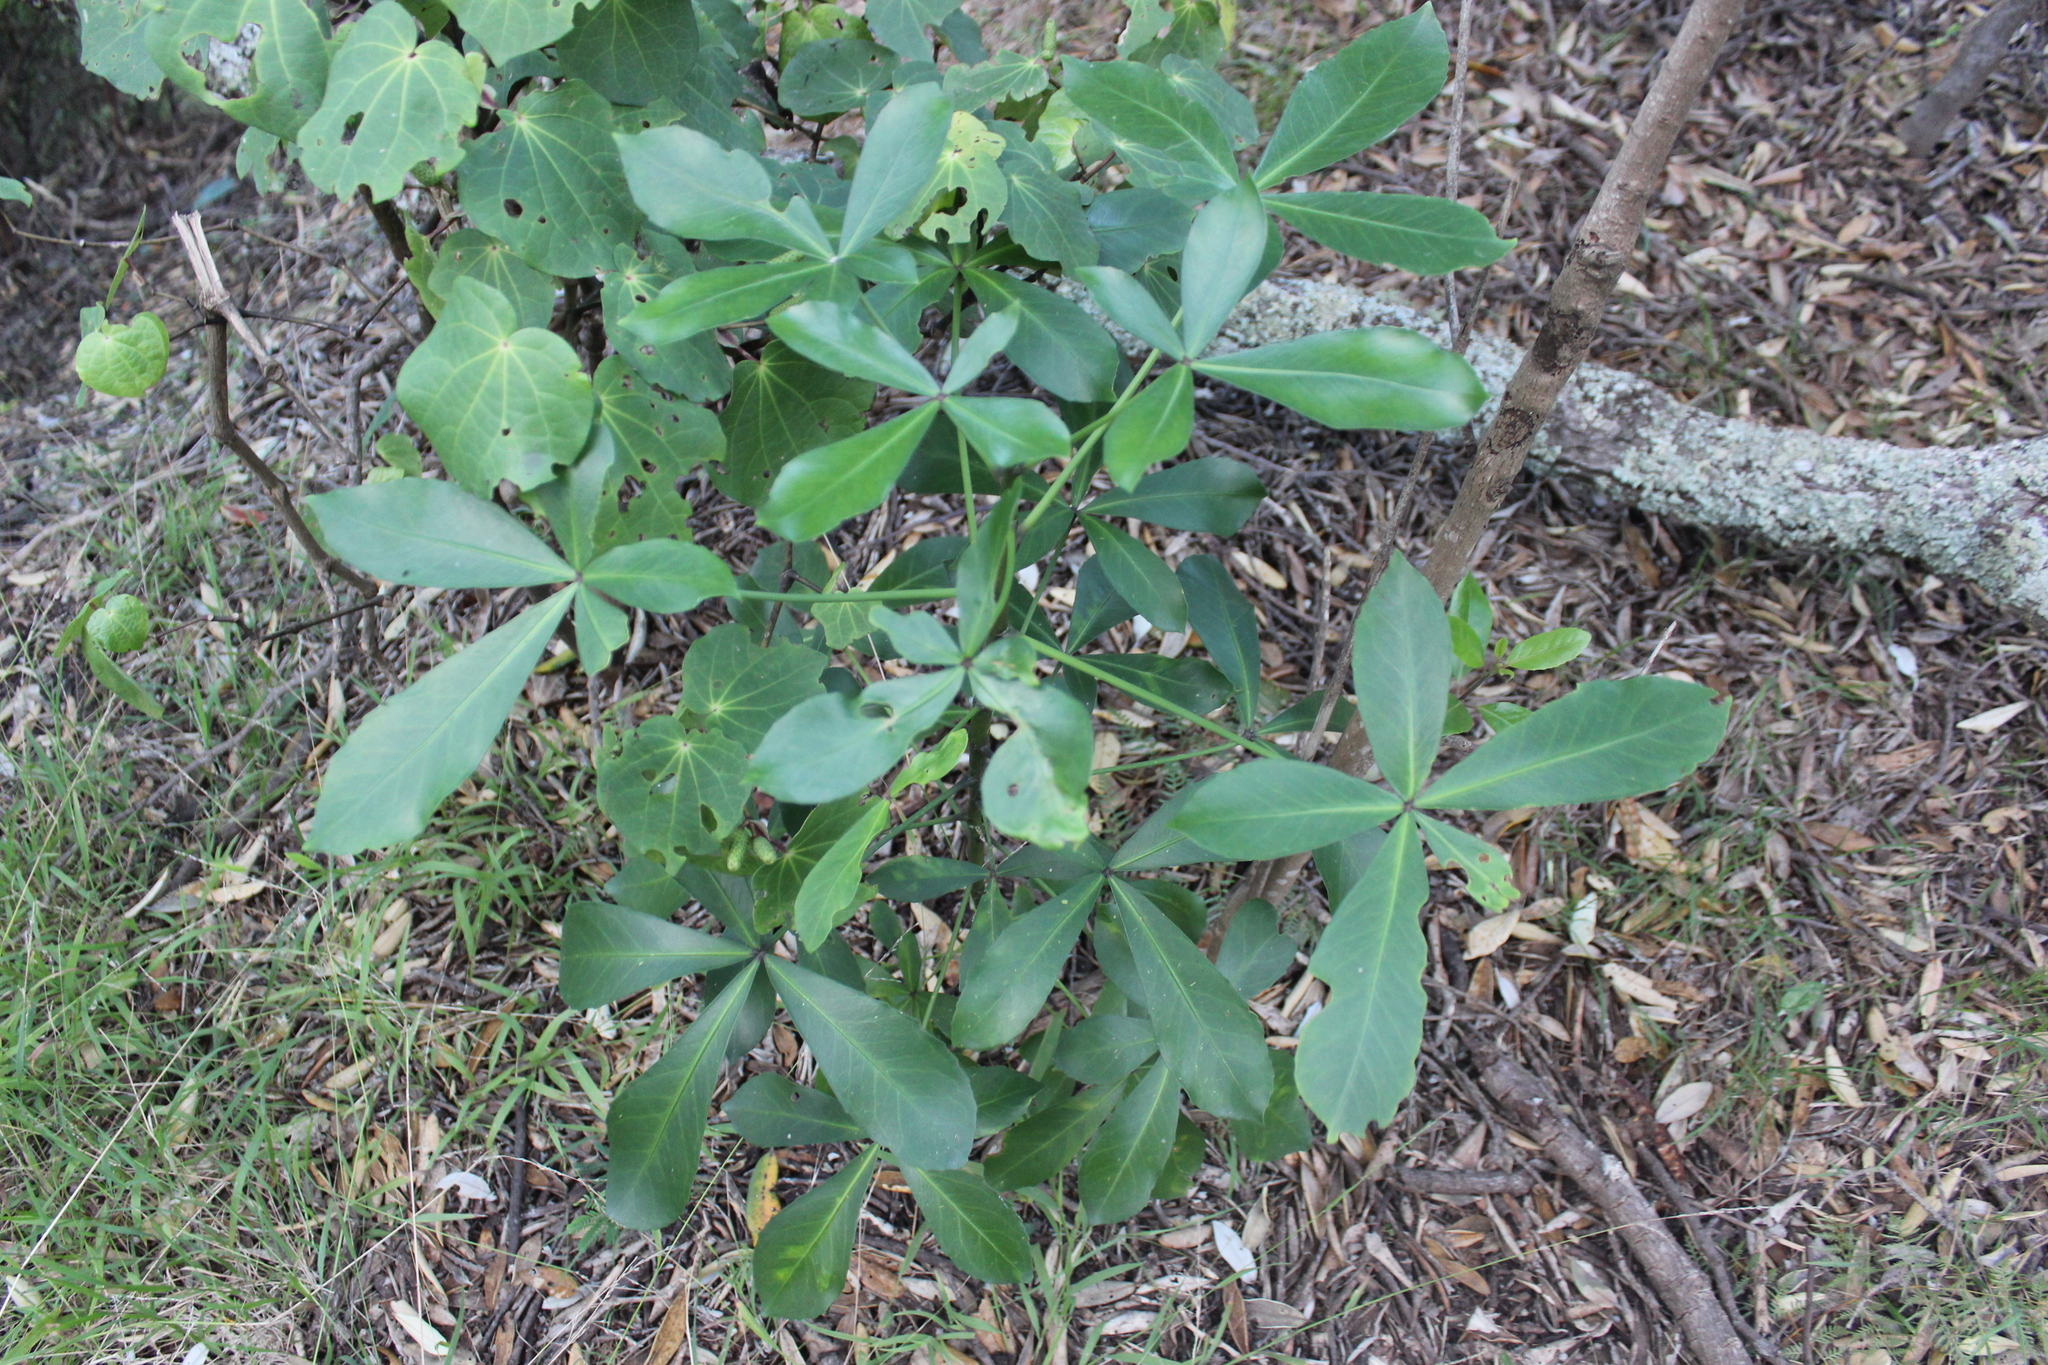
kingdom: Plantae
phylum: Tracheophyta
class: Magnoliopsida
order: Apiales
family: Araliaceae
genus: Pseudopanax
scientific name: Pseudopanax lessonii
